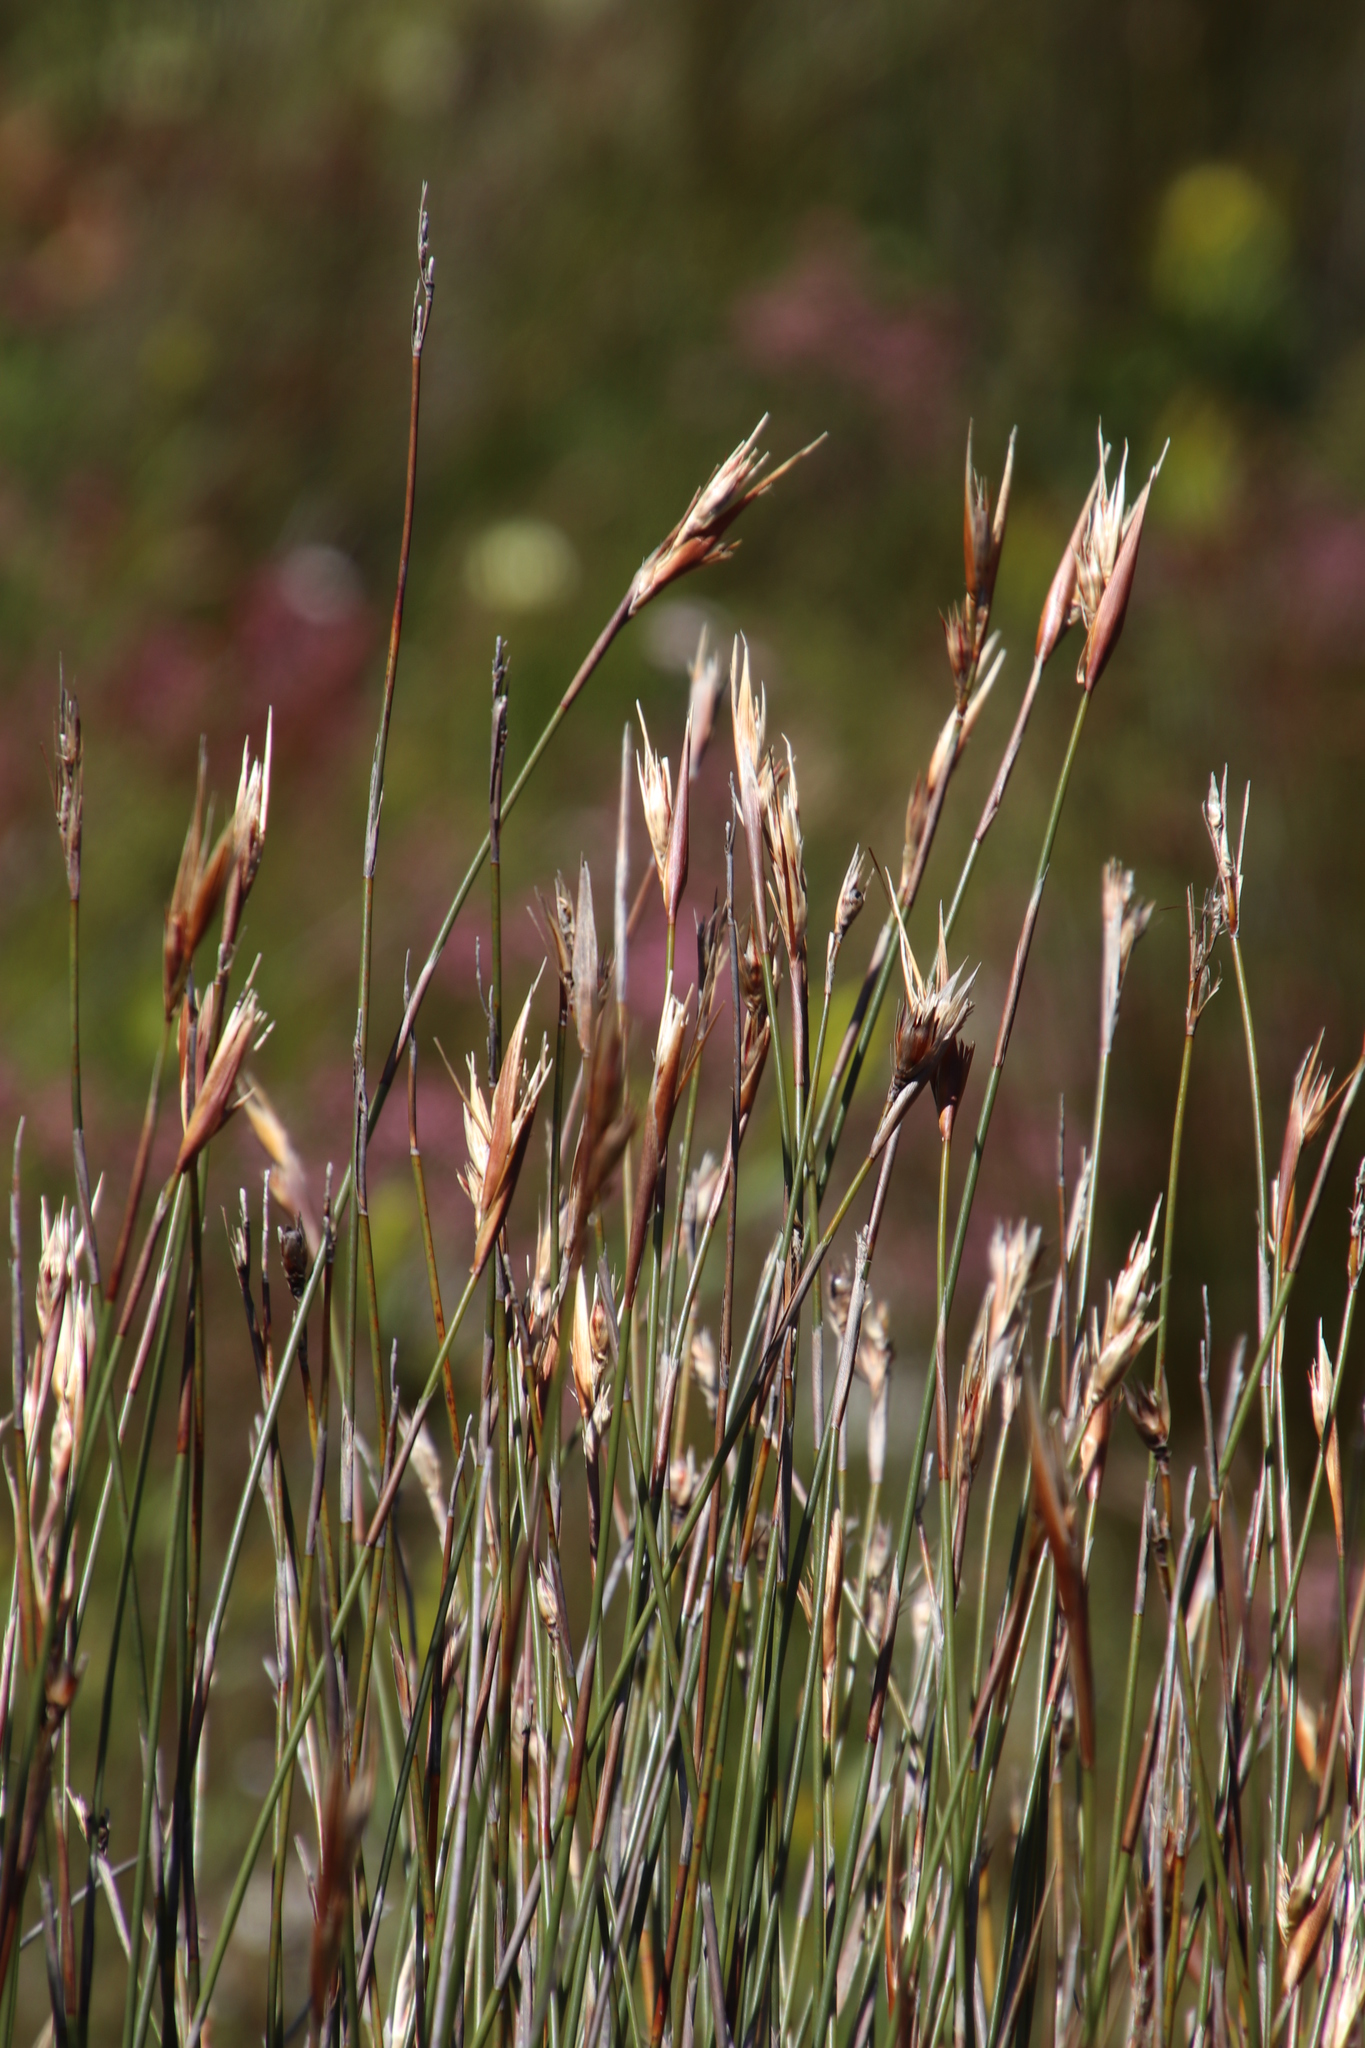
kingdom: Plantae
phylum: Tracheophyta
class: Liliopsida
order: Poales
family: Restionaceae
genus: Hypodiscus
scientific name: Hypodiscus argenteus
